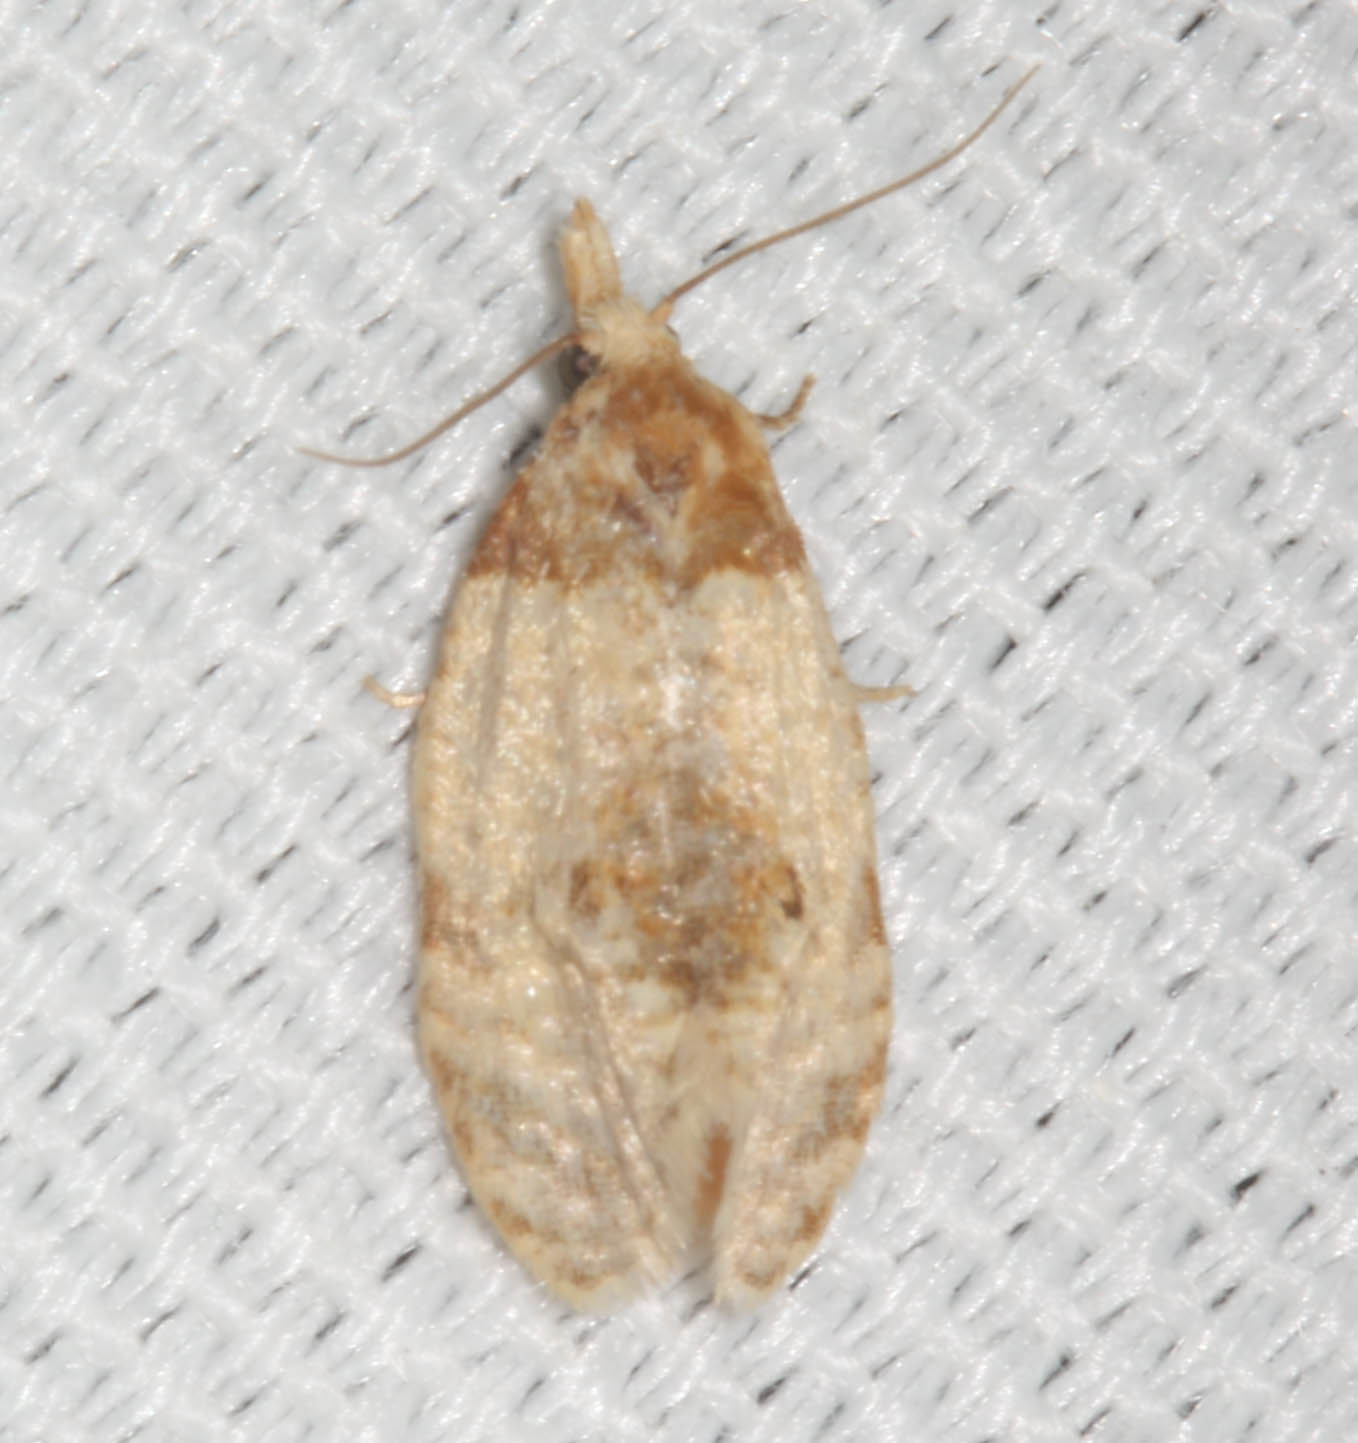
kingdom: Animalia
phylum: Arthropoda
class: Insecta
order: Lepidoptera
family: Tortricidae
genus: Henricus
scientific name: Henricus umbrabasana
